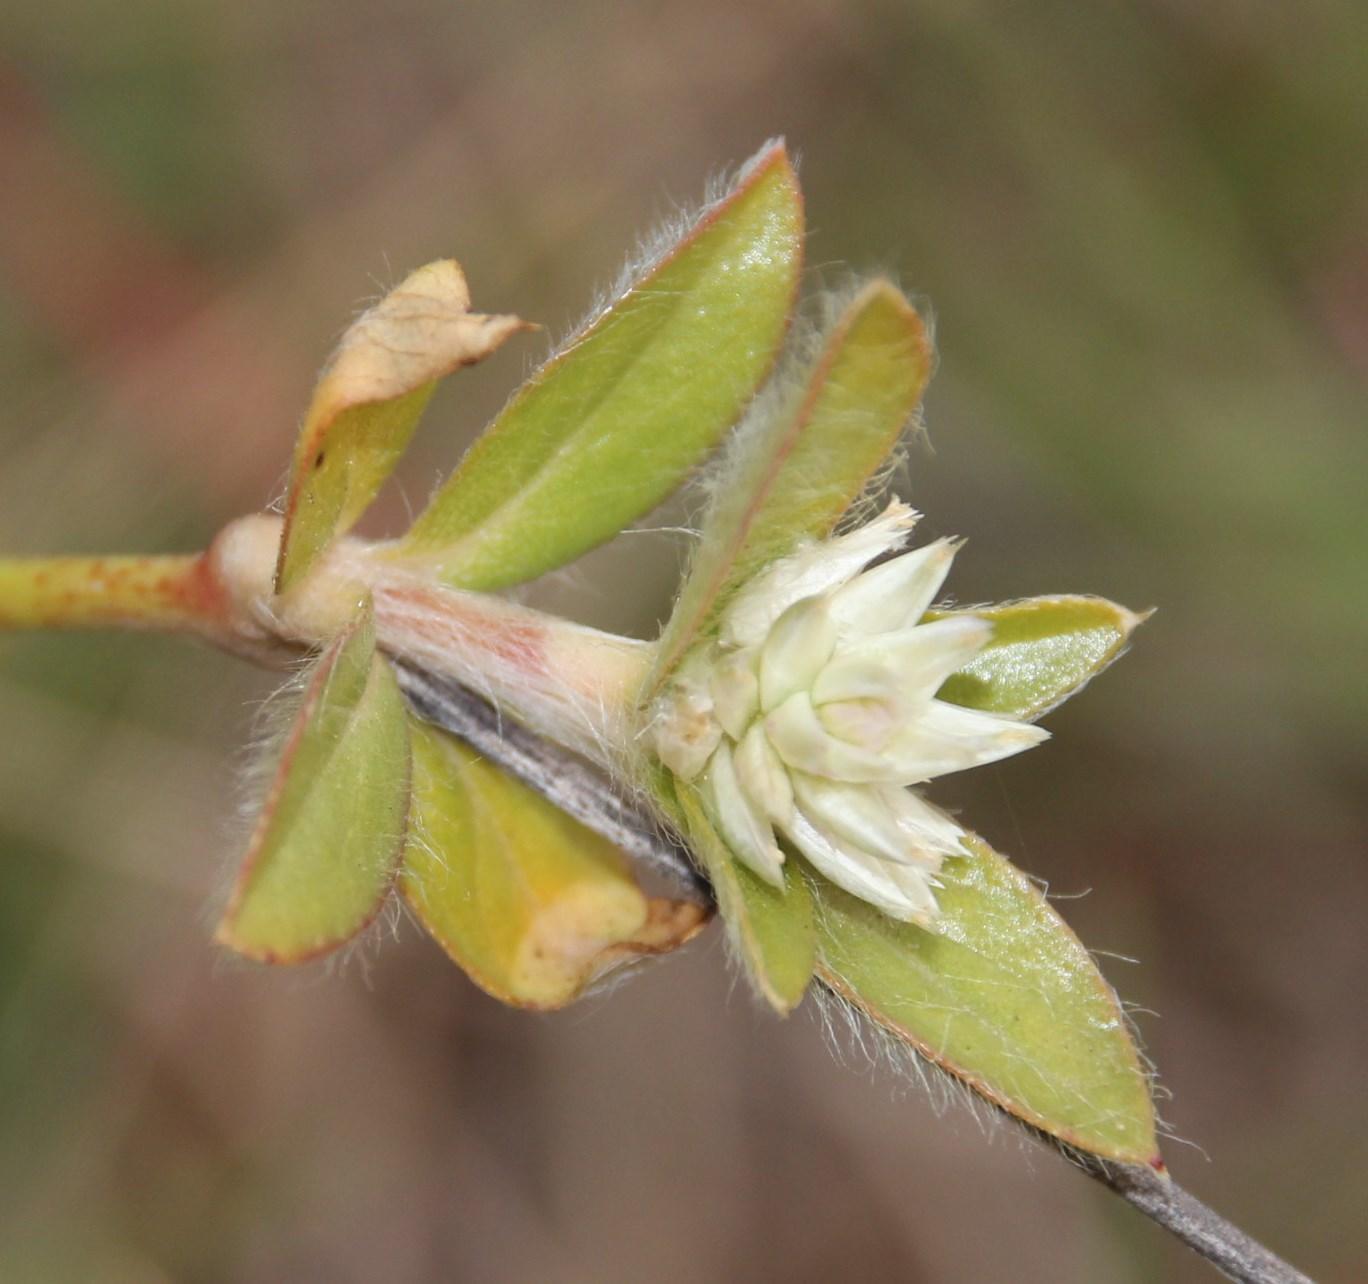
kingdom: Plantae
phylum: Tracheophyta
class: Magnoliopsida
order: Caryophyllales
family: Amaranthaceae
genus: Gomphrena
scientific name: Gomphrena celosioides
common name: Gomphrena-weed
